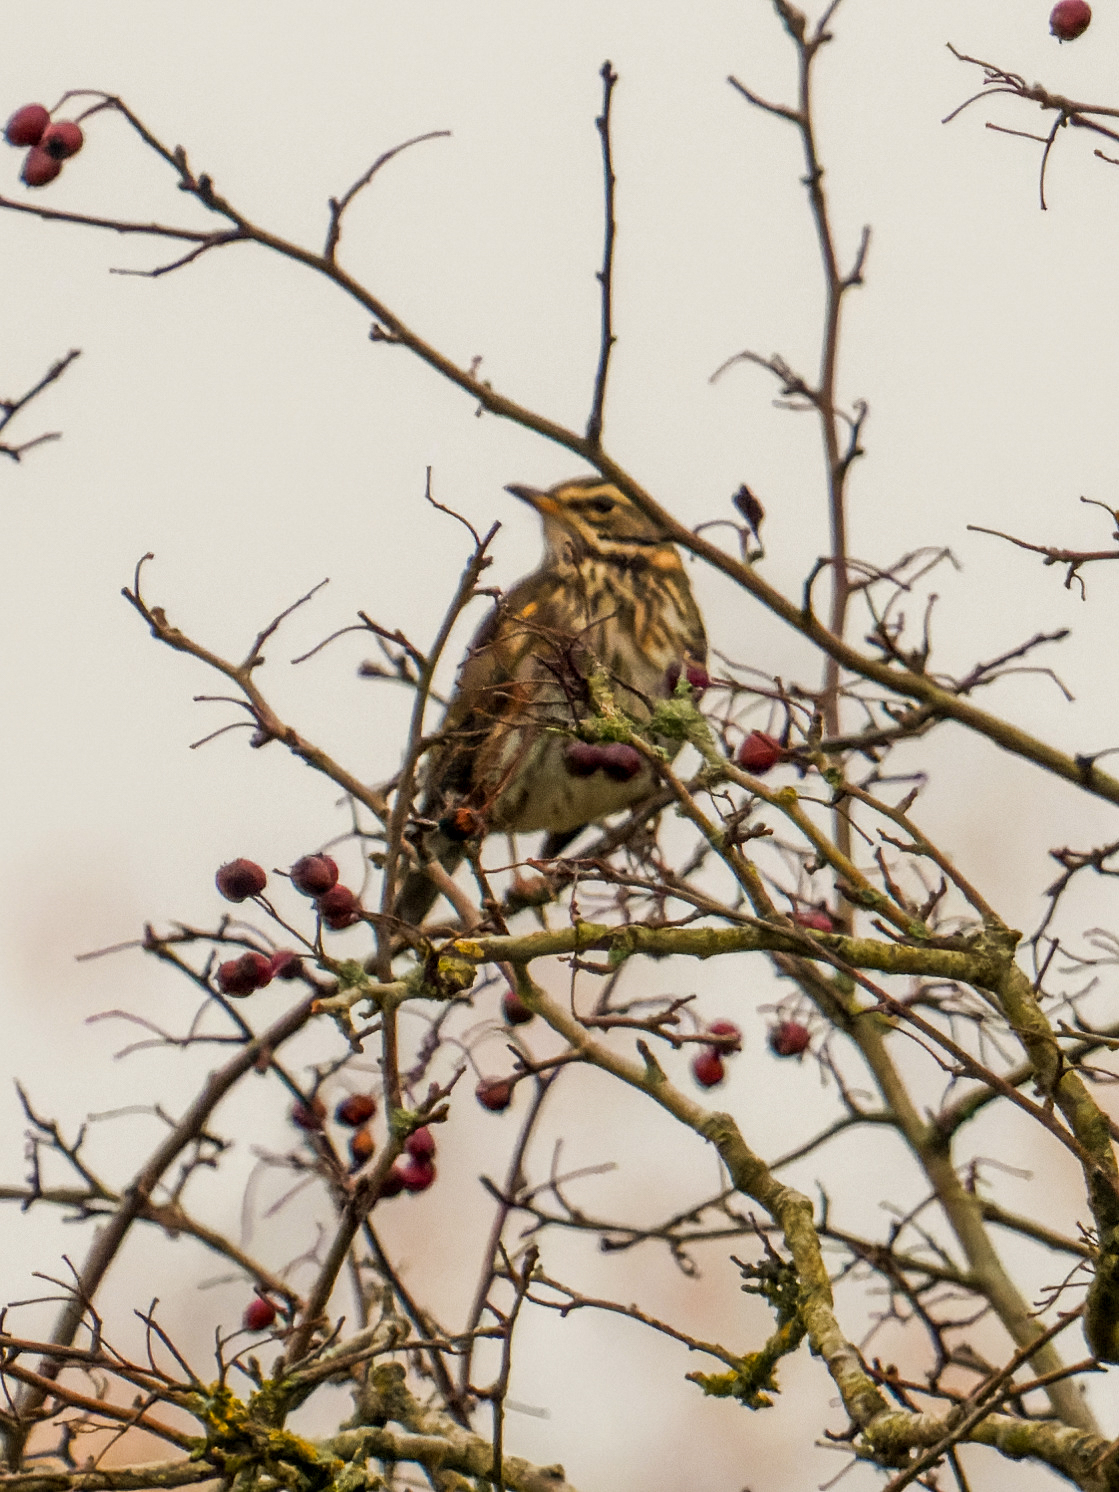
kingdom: Animalia
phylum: Chordata
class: Aves
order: Passeriformes
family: Turdidae
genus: Turdus
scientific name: Turdus iliacus
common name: Redwing
